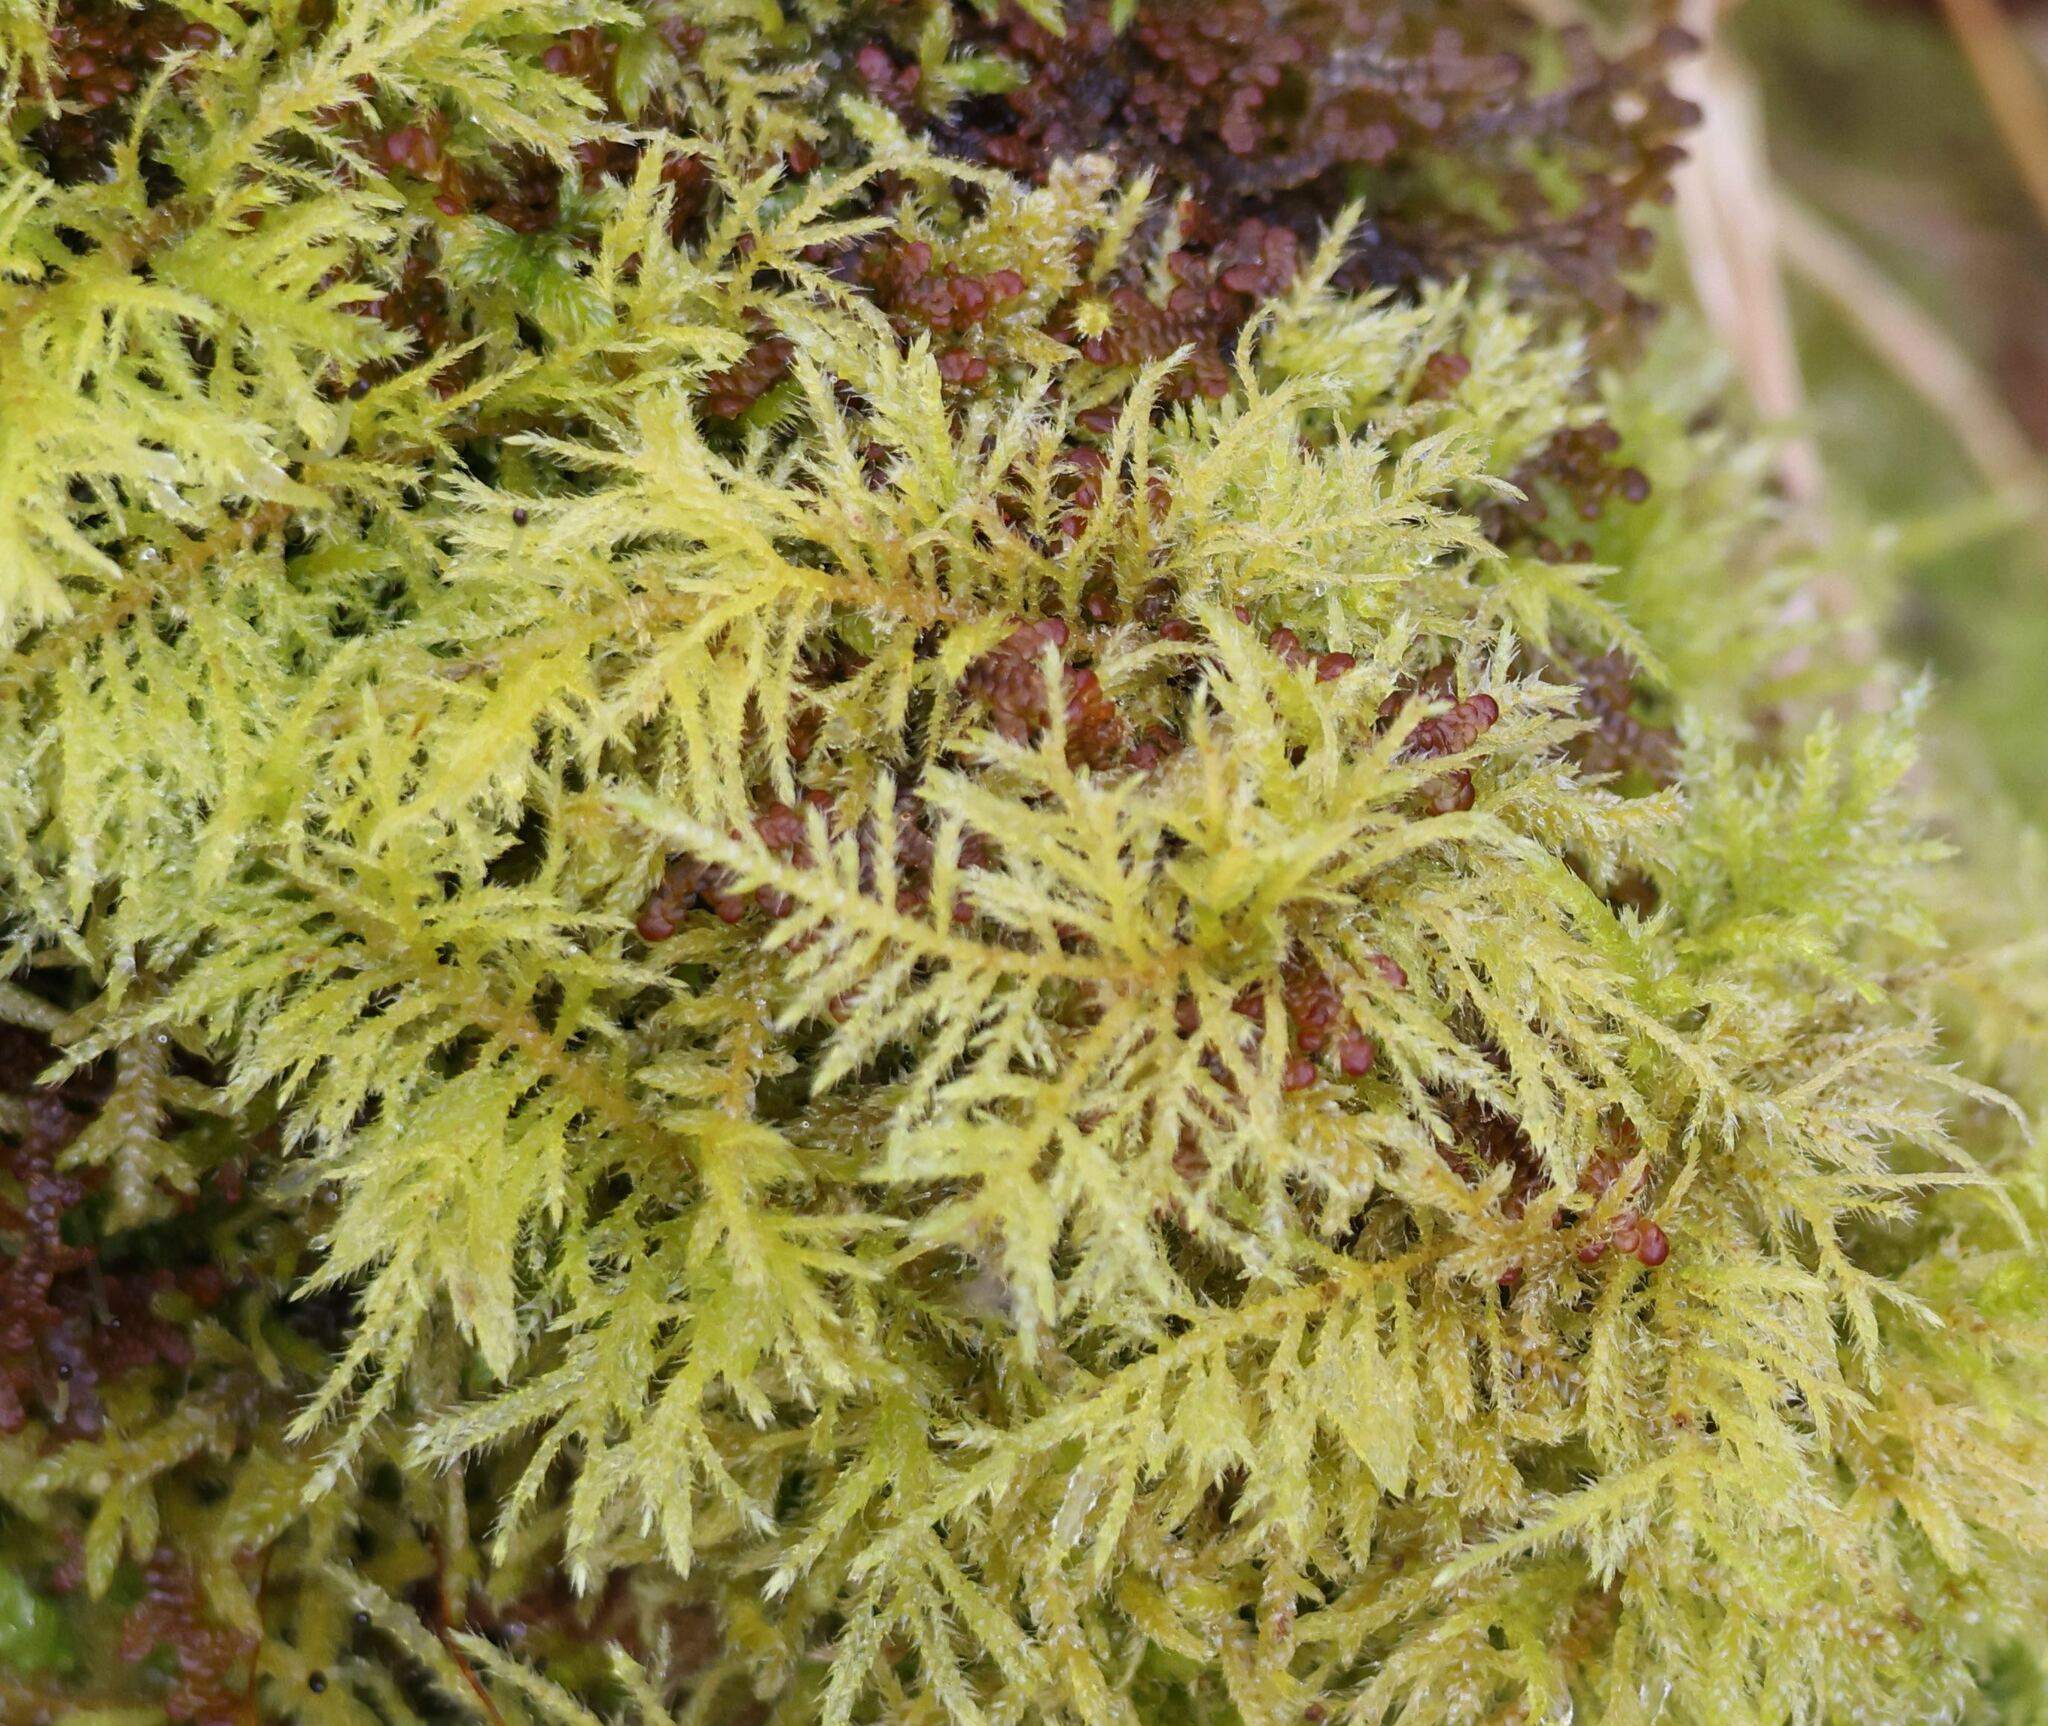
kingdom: Plantae
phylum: Bryophyta
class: Bryopsida
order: Hypnales
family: Brachytheciaceae
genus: Kindbergia
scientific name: Kindbergia praelonga
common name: Slender beaked moss
